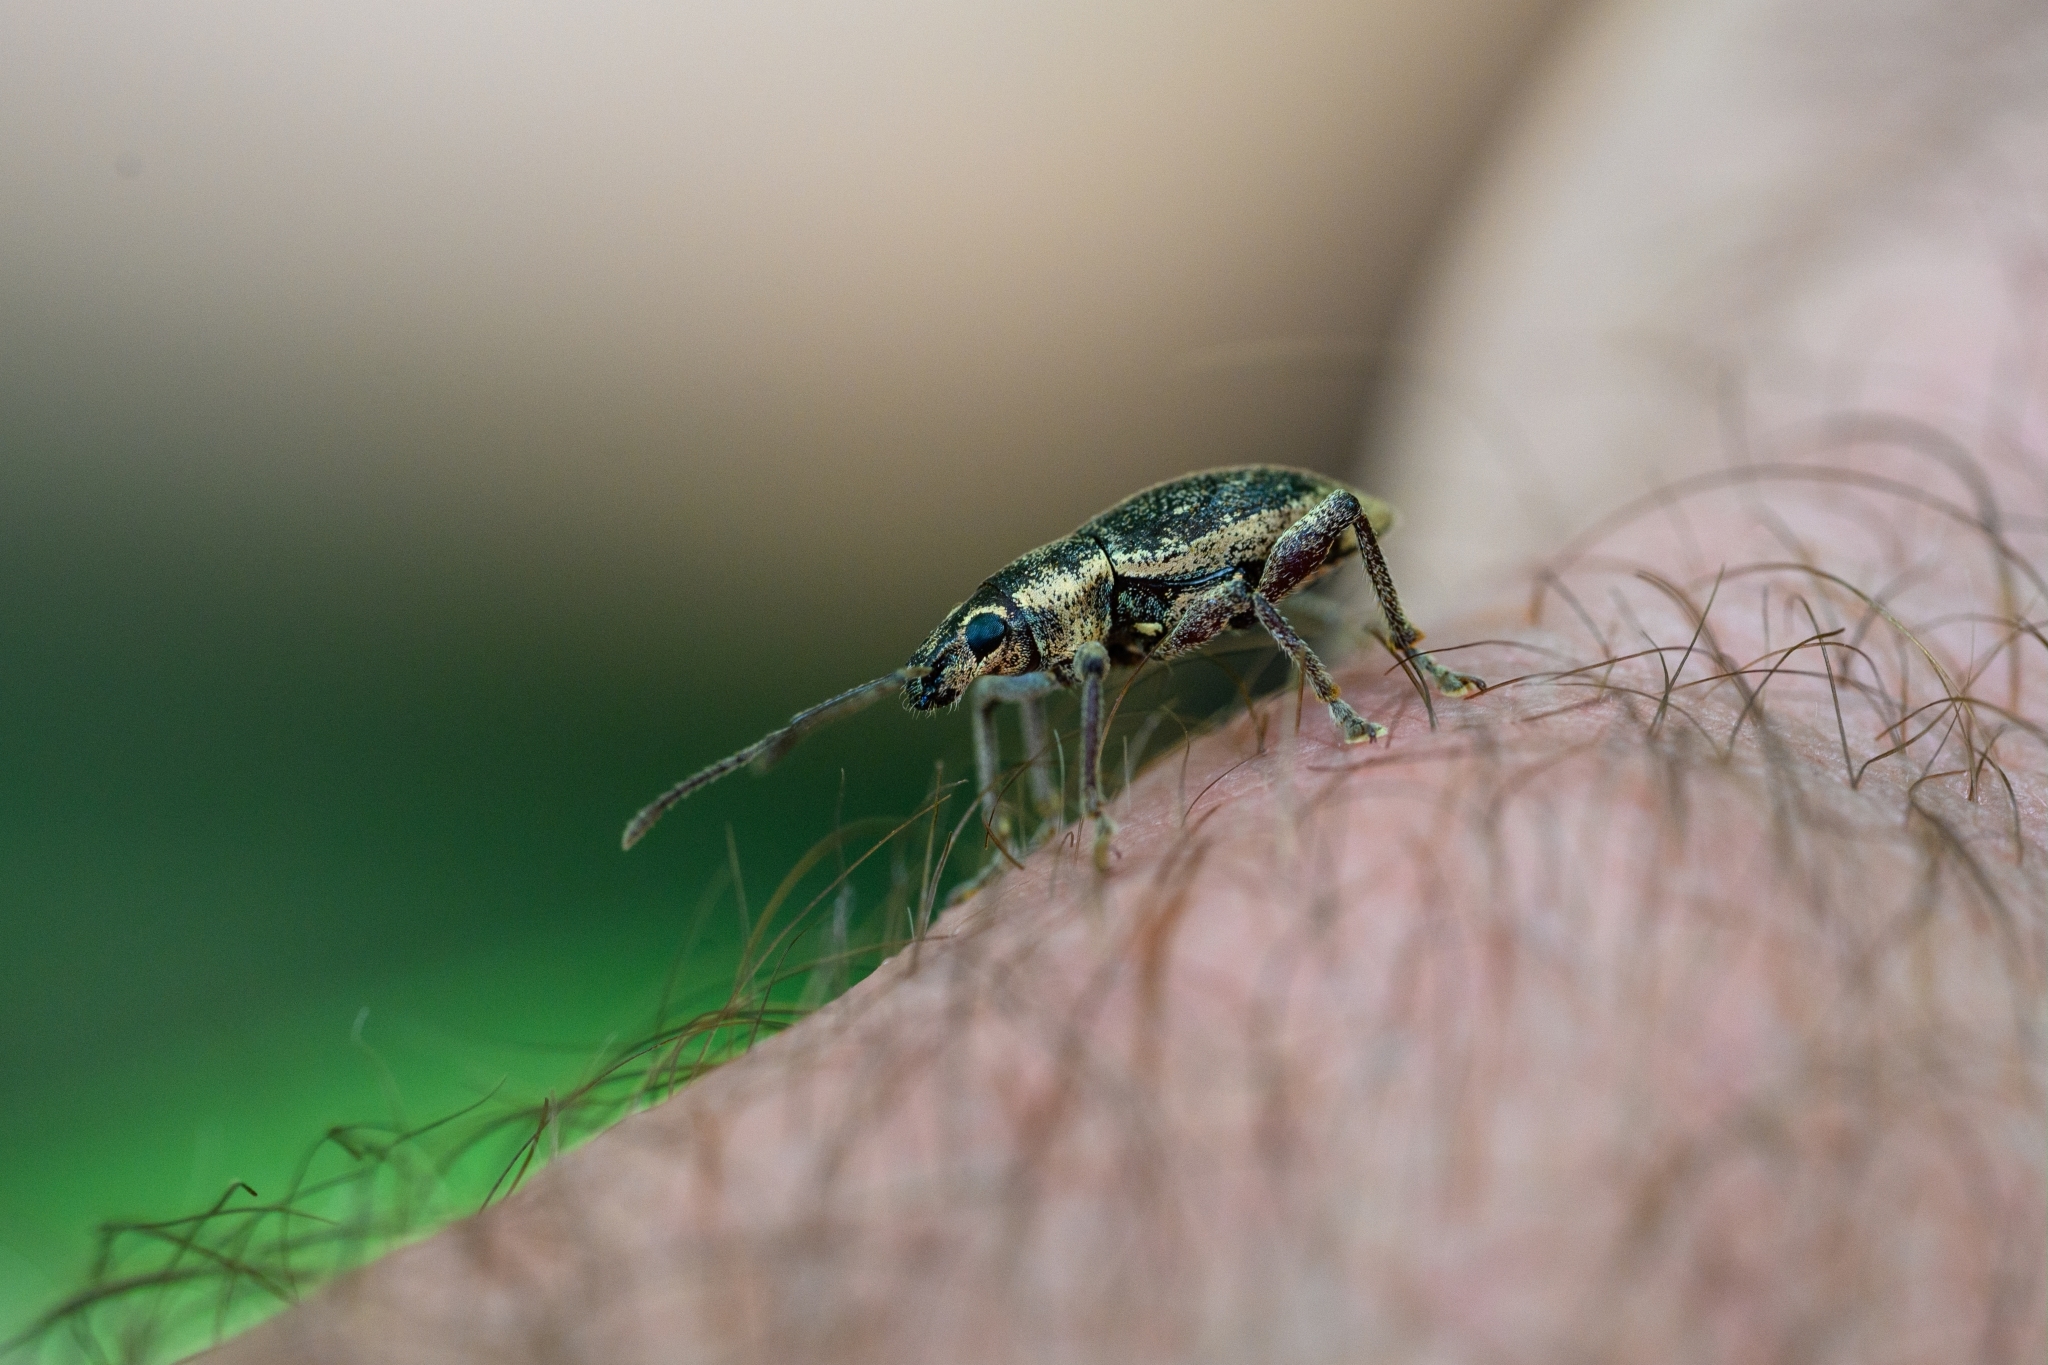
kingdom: Animalia
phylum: Arthropoda
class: Insecta
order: Coleoptera
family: Curculionidae
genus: Elytrurus
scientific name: Elytrurus niuei
